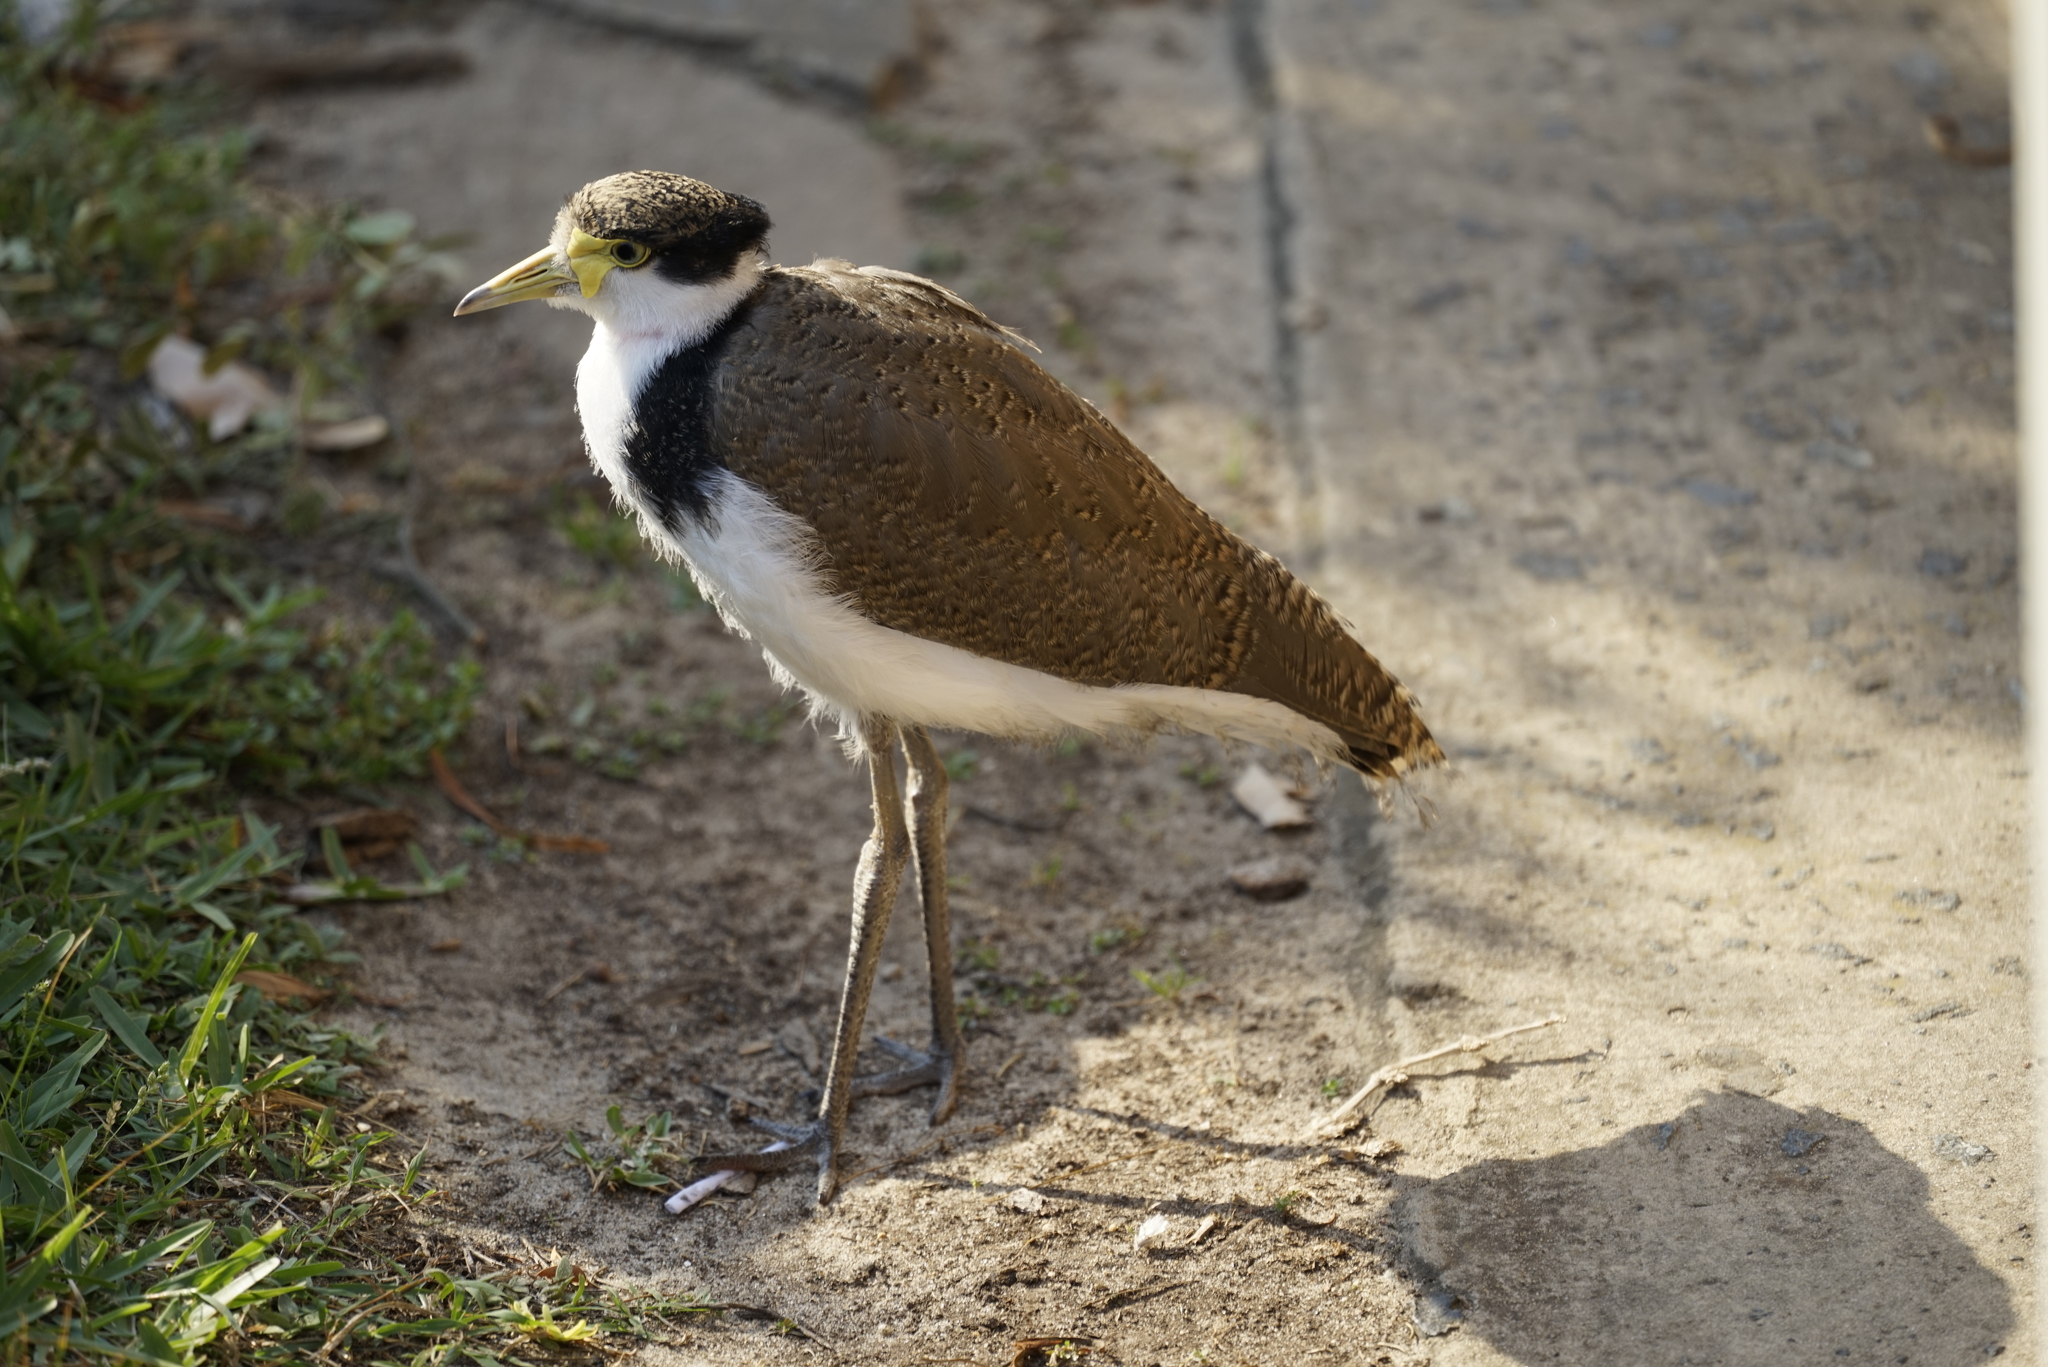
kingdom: Animalia
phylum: Chordata
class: Aves
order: Charadriiformes
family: Charadriidae
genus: Vanellus
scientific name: Vanellus miles
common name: Masked lapwing
